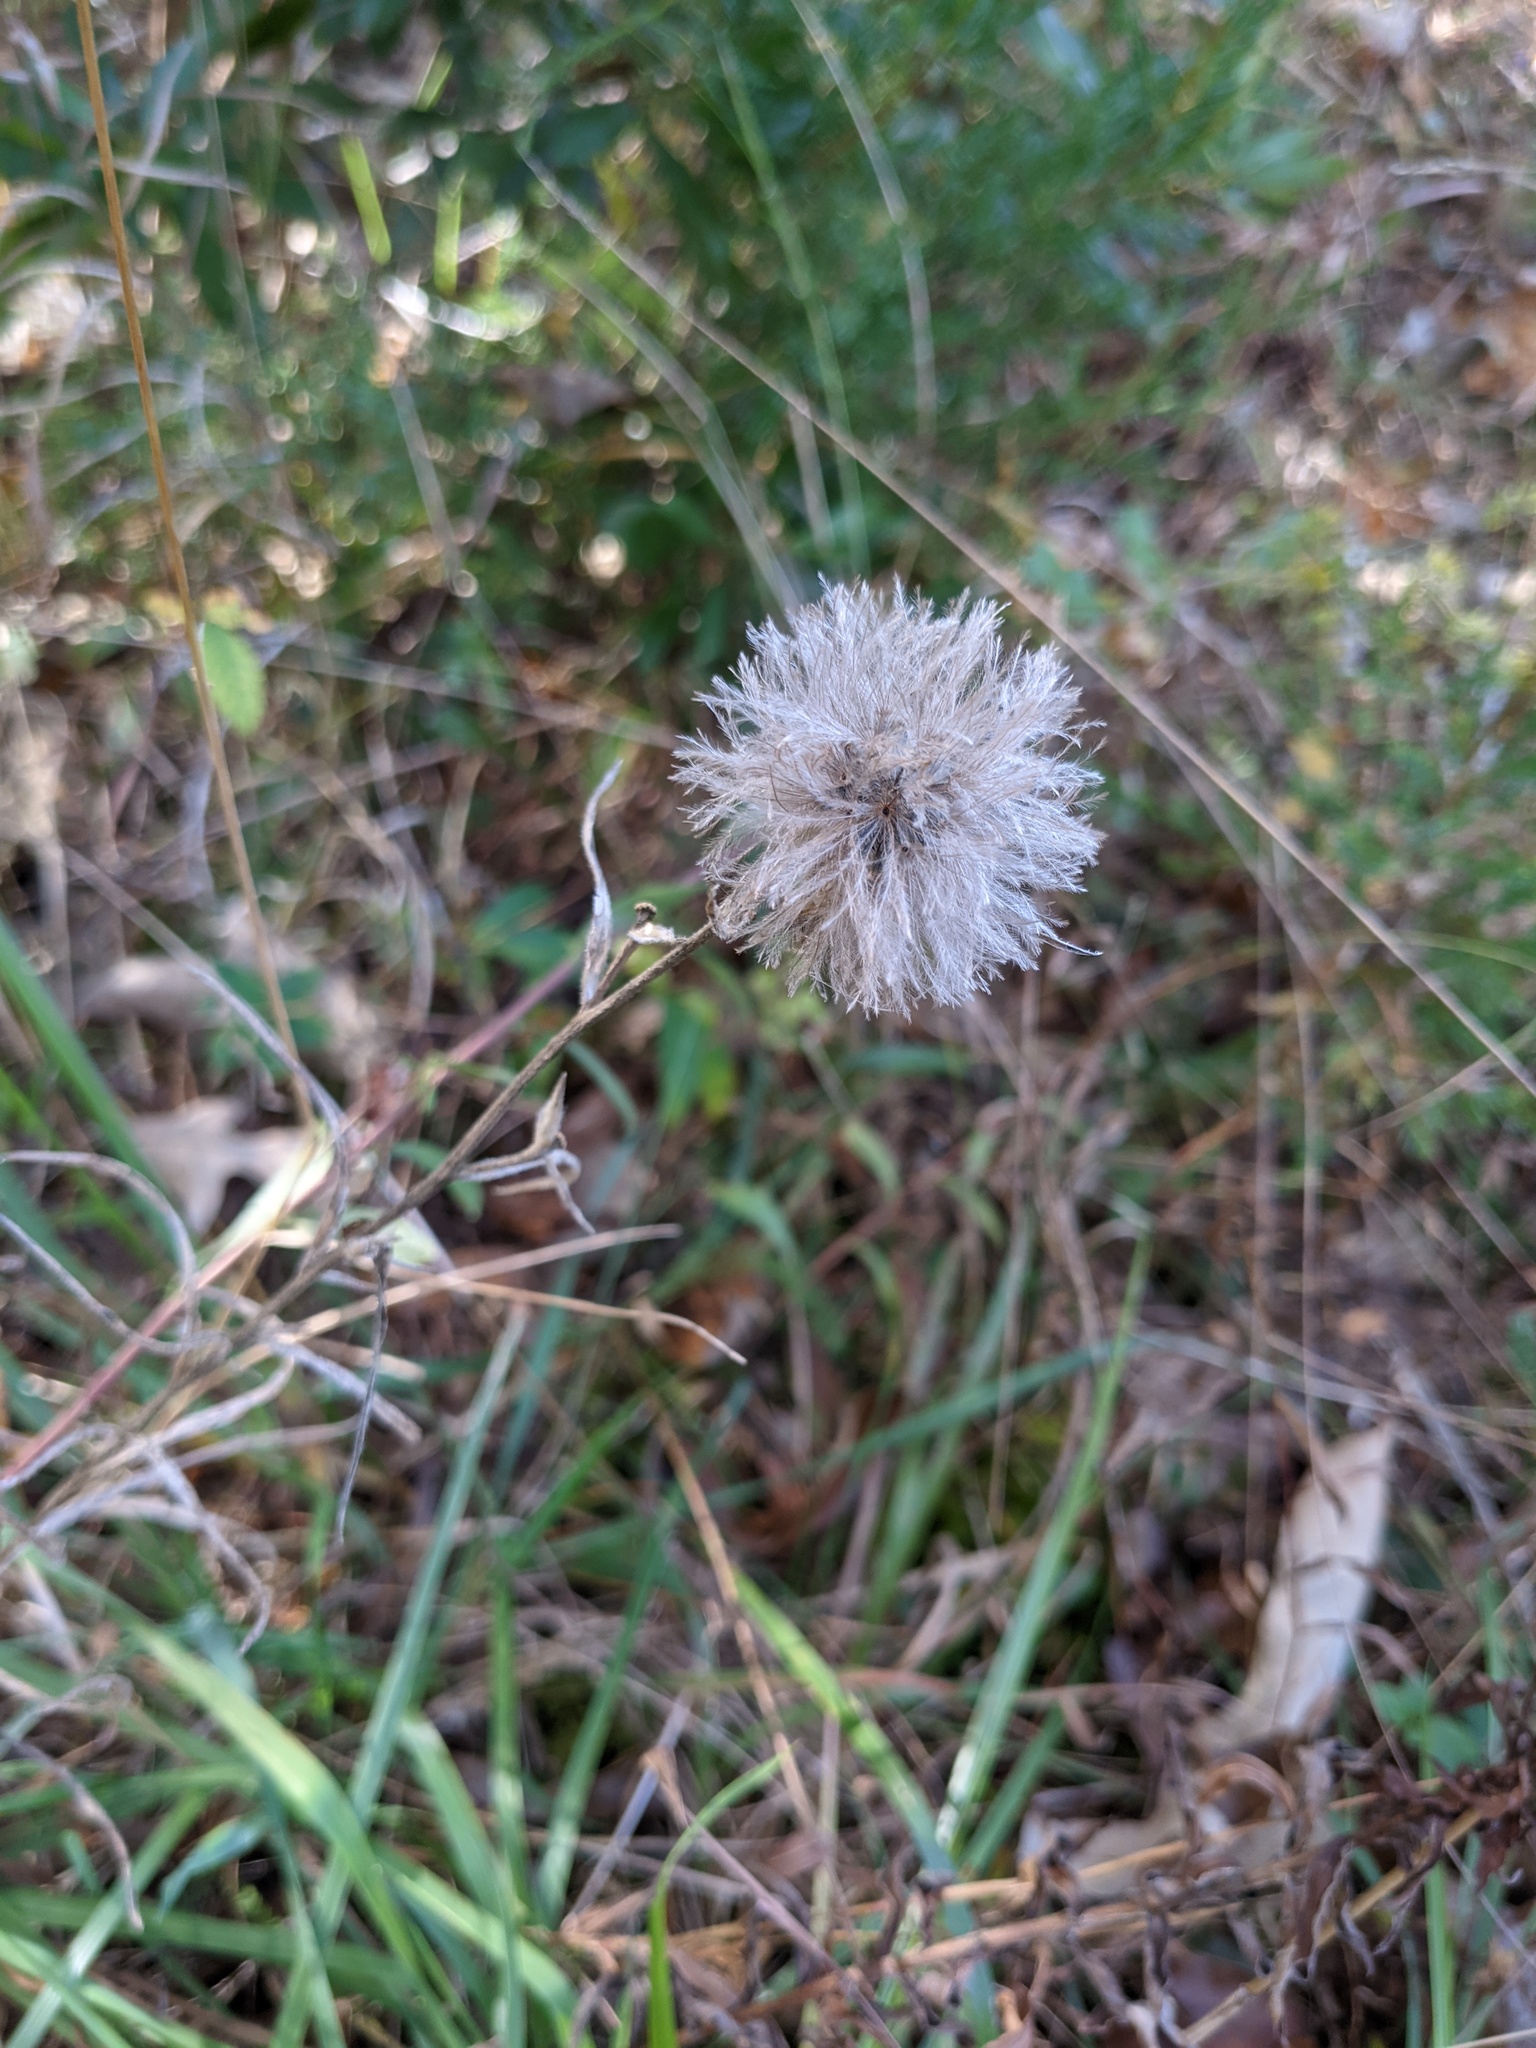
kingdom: Plantae
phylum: Tracheophyta
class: Magnoliopsida
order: Asterales
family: Asteraceae
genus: Liatris
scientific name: Liatris squarrosa
